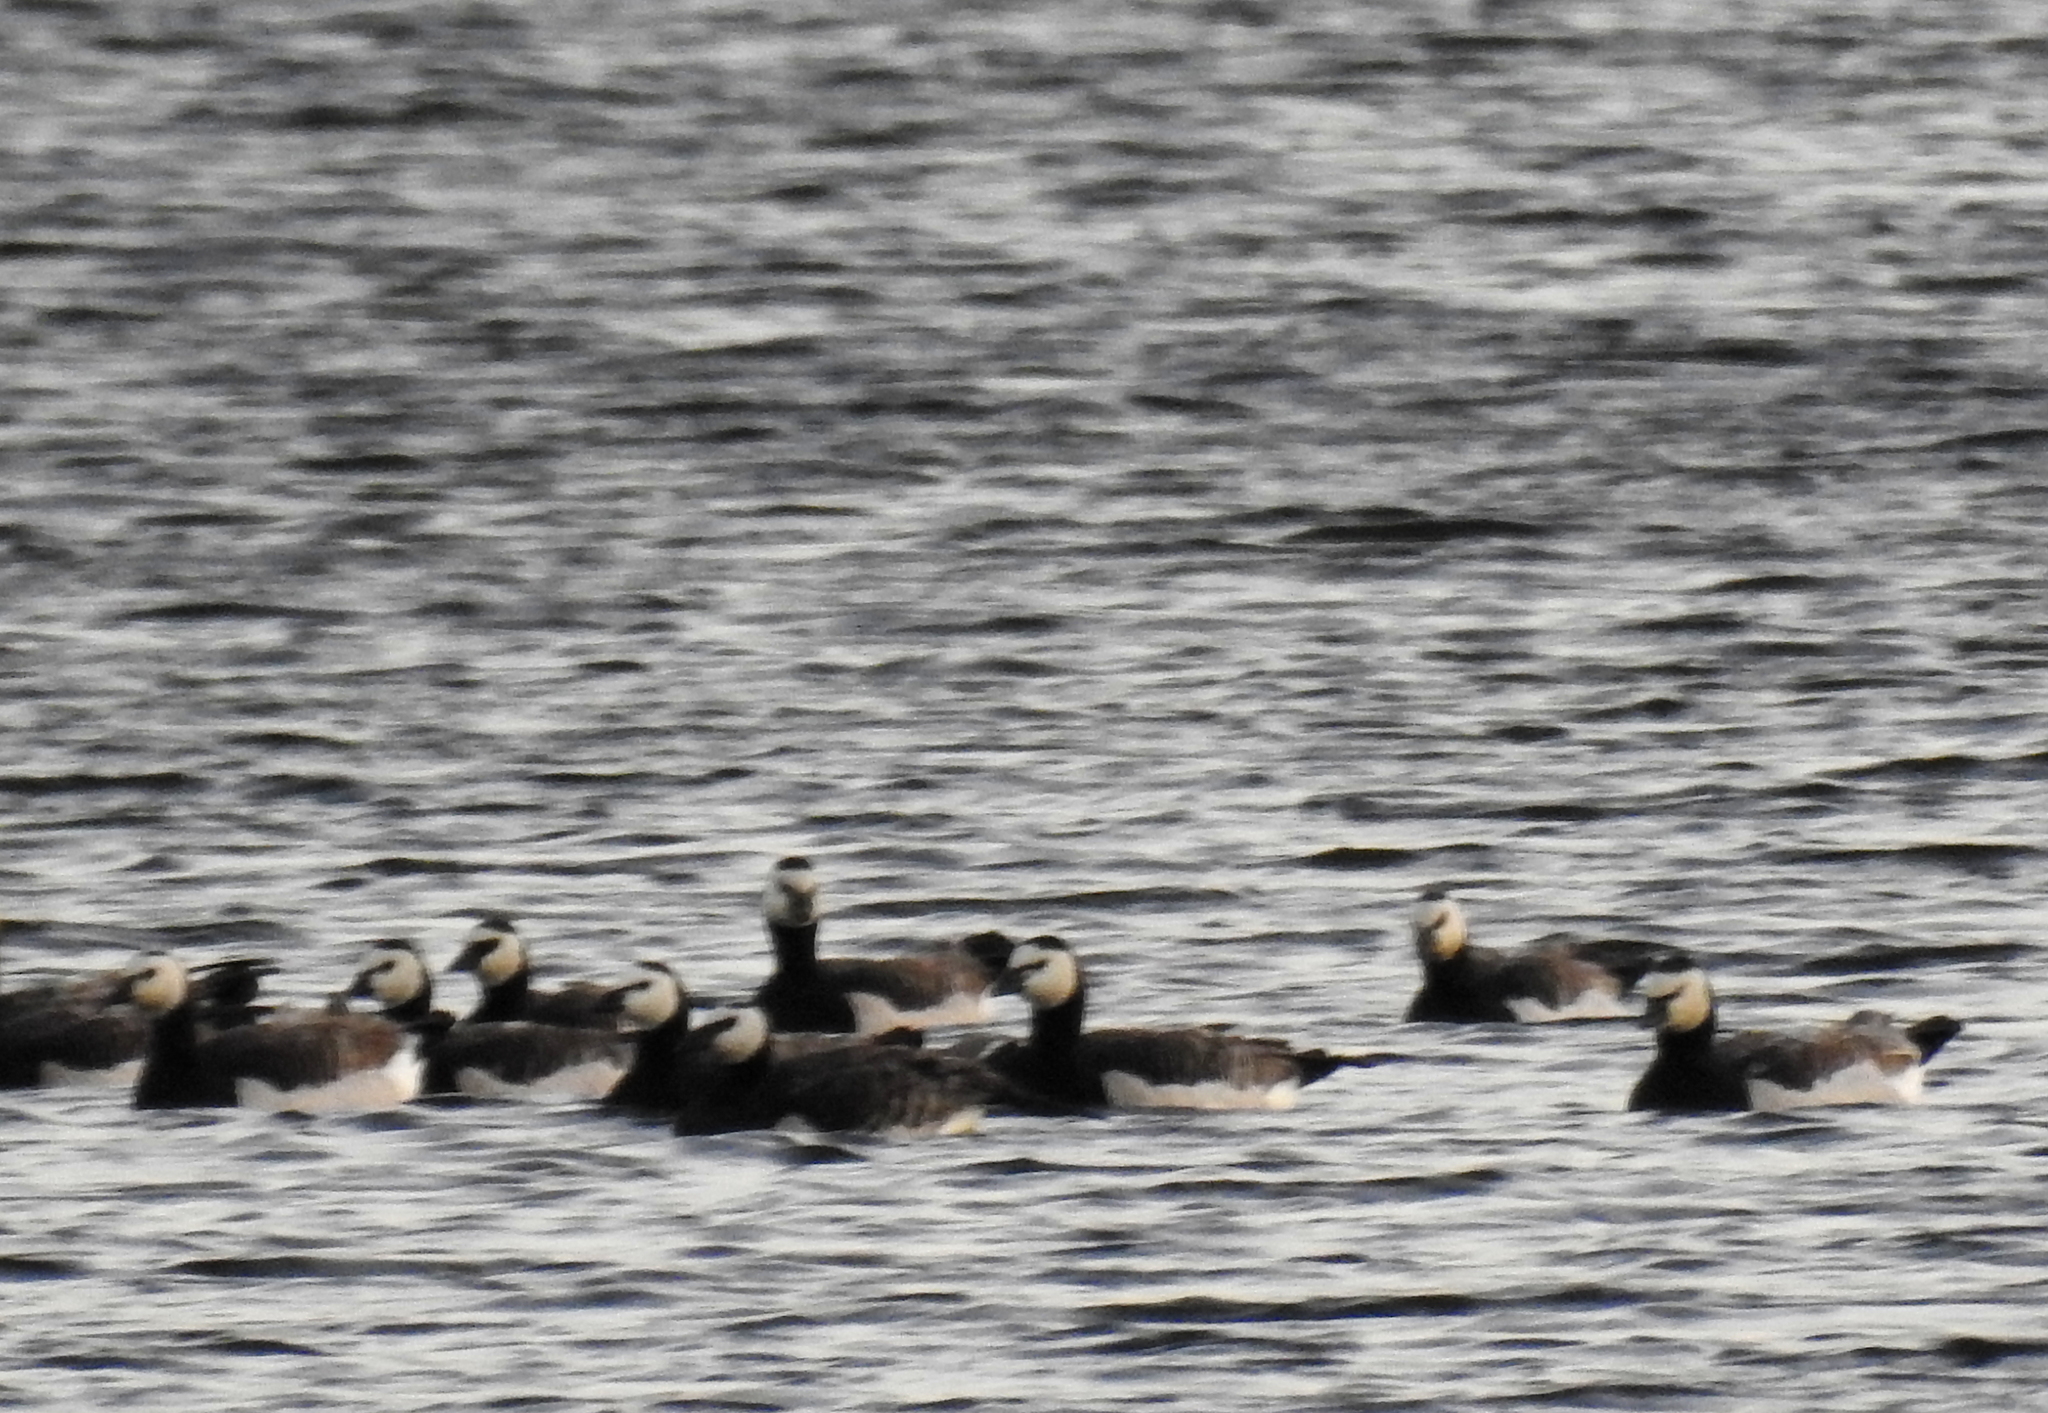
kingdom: Animalia
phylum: Chordata
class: Aves
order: Anseriformes
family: Anatidae
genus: Branta
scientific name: Branta leucopsis
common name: Barnacle goose
